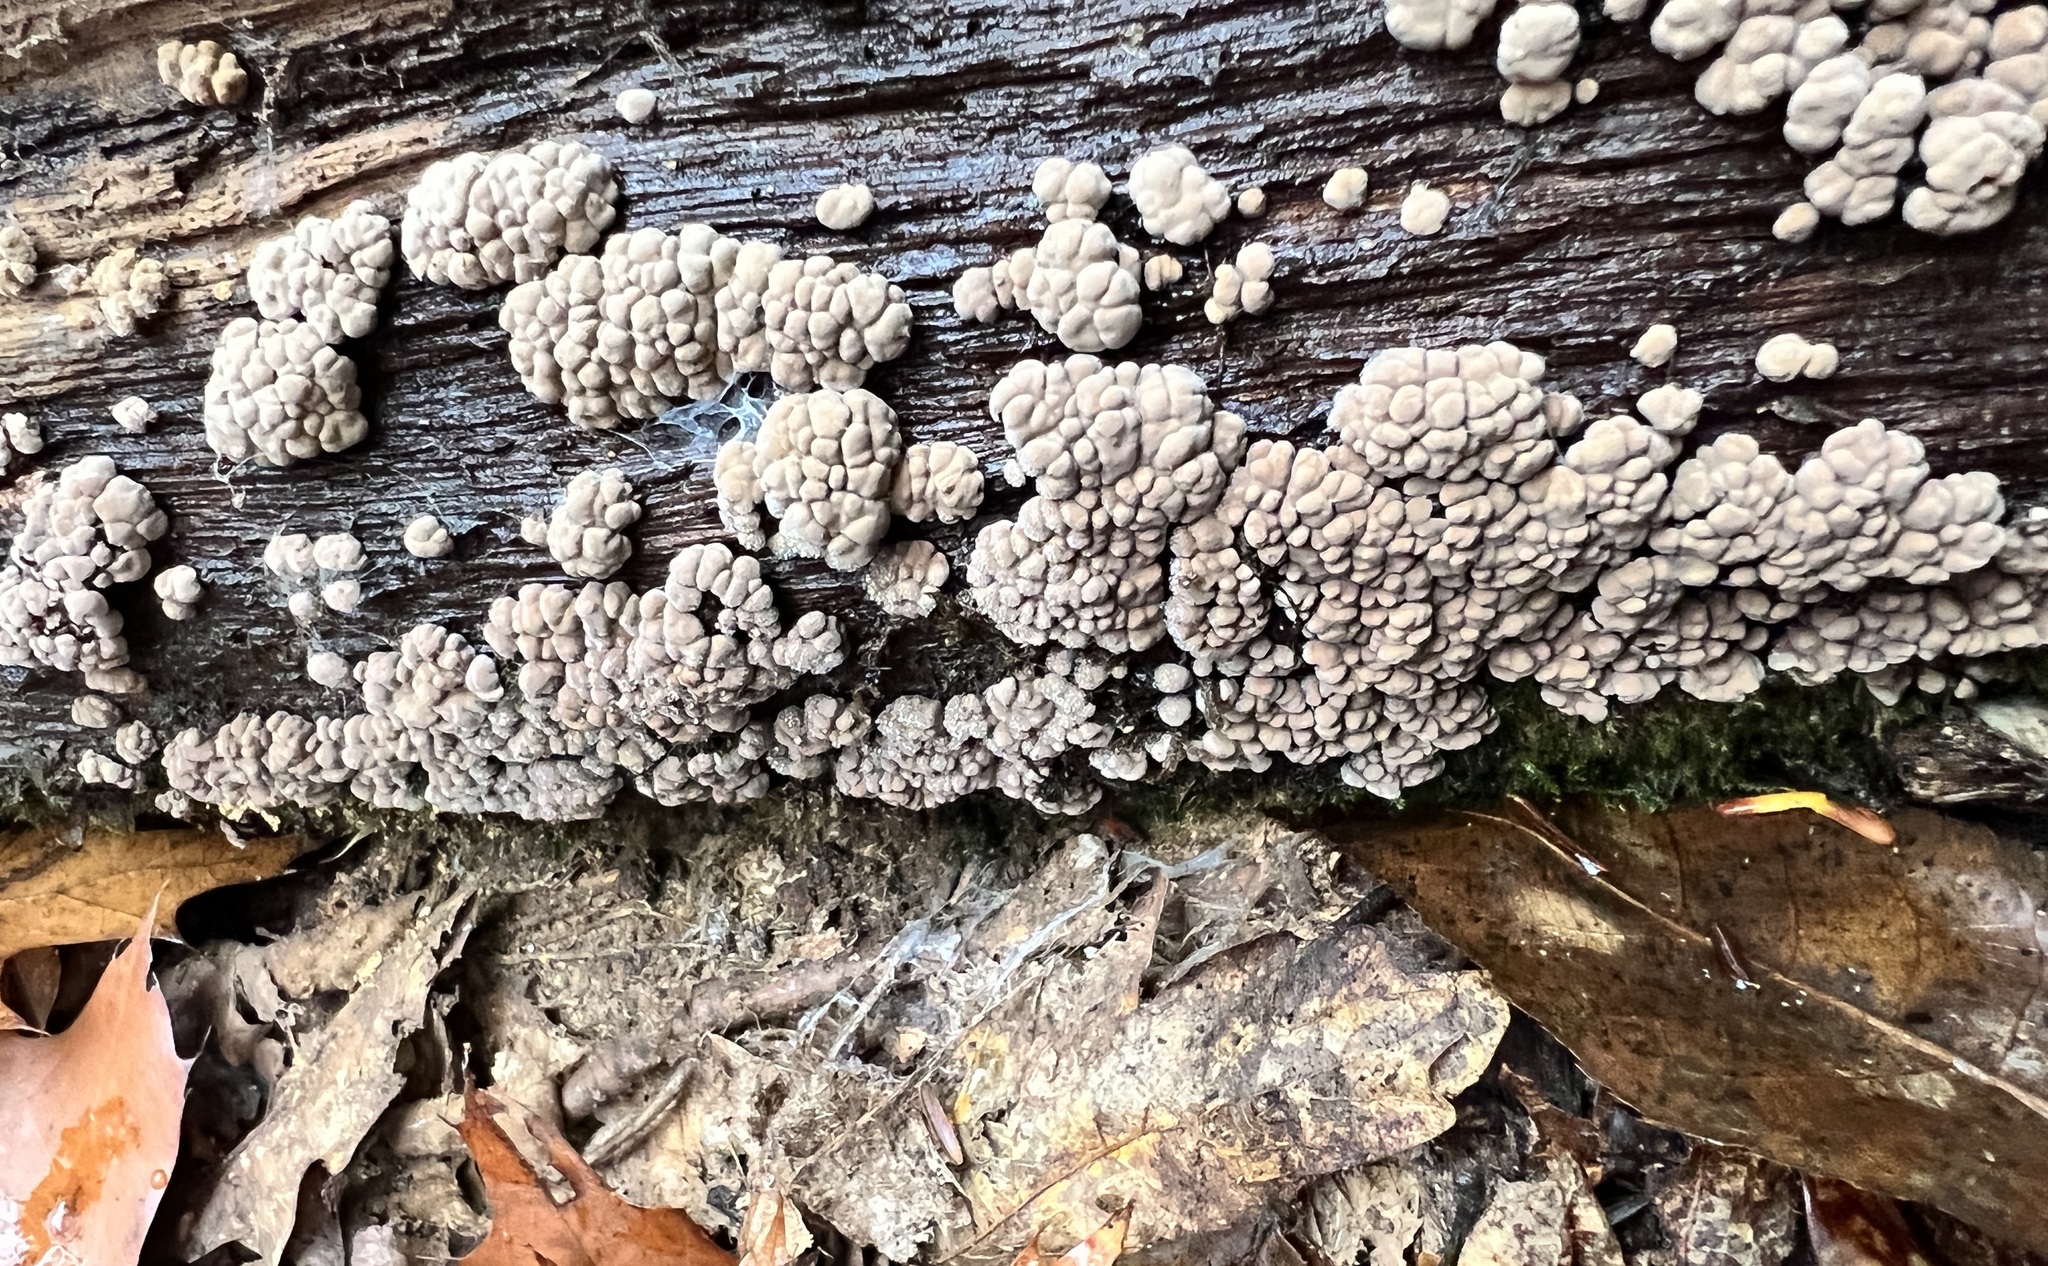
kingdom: Fungi
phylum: Basidiomycota
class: Agaricomycetes
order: Russulales
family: Stereaceae
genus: Xylobolus
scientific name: Xylobolus frustulatus
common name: Ceramic parchment
